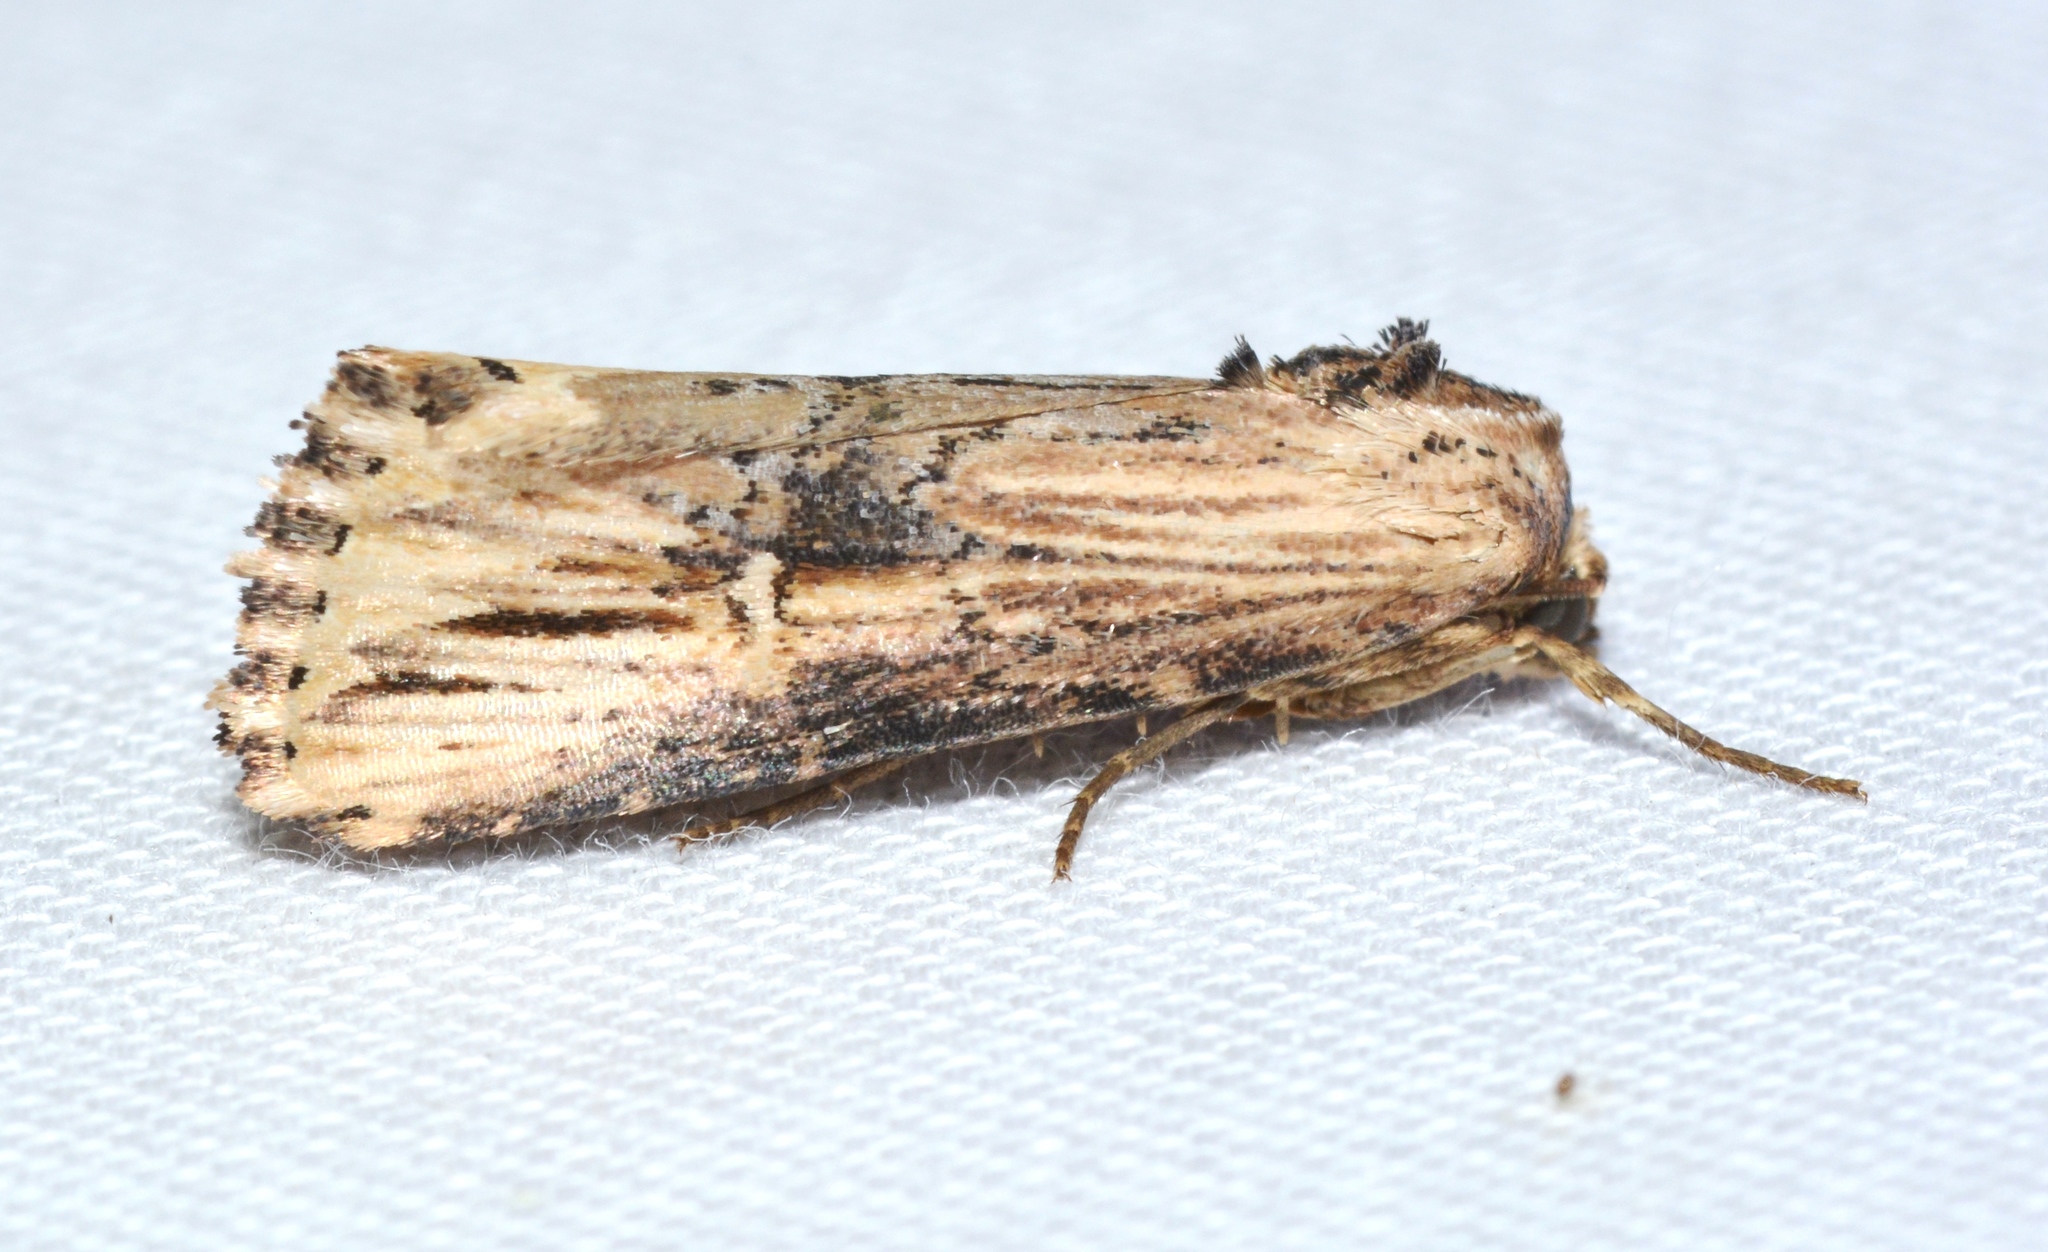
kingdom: Animalia
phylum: Arthropoda
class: Insecta
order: Lepidoptera
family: Noctuidae
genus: Crambodes
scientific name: Crambodes talidiformis
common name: Verbena moth
